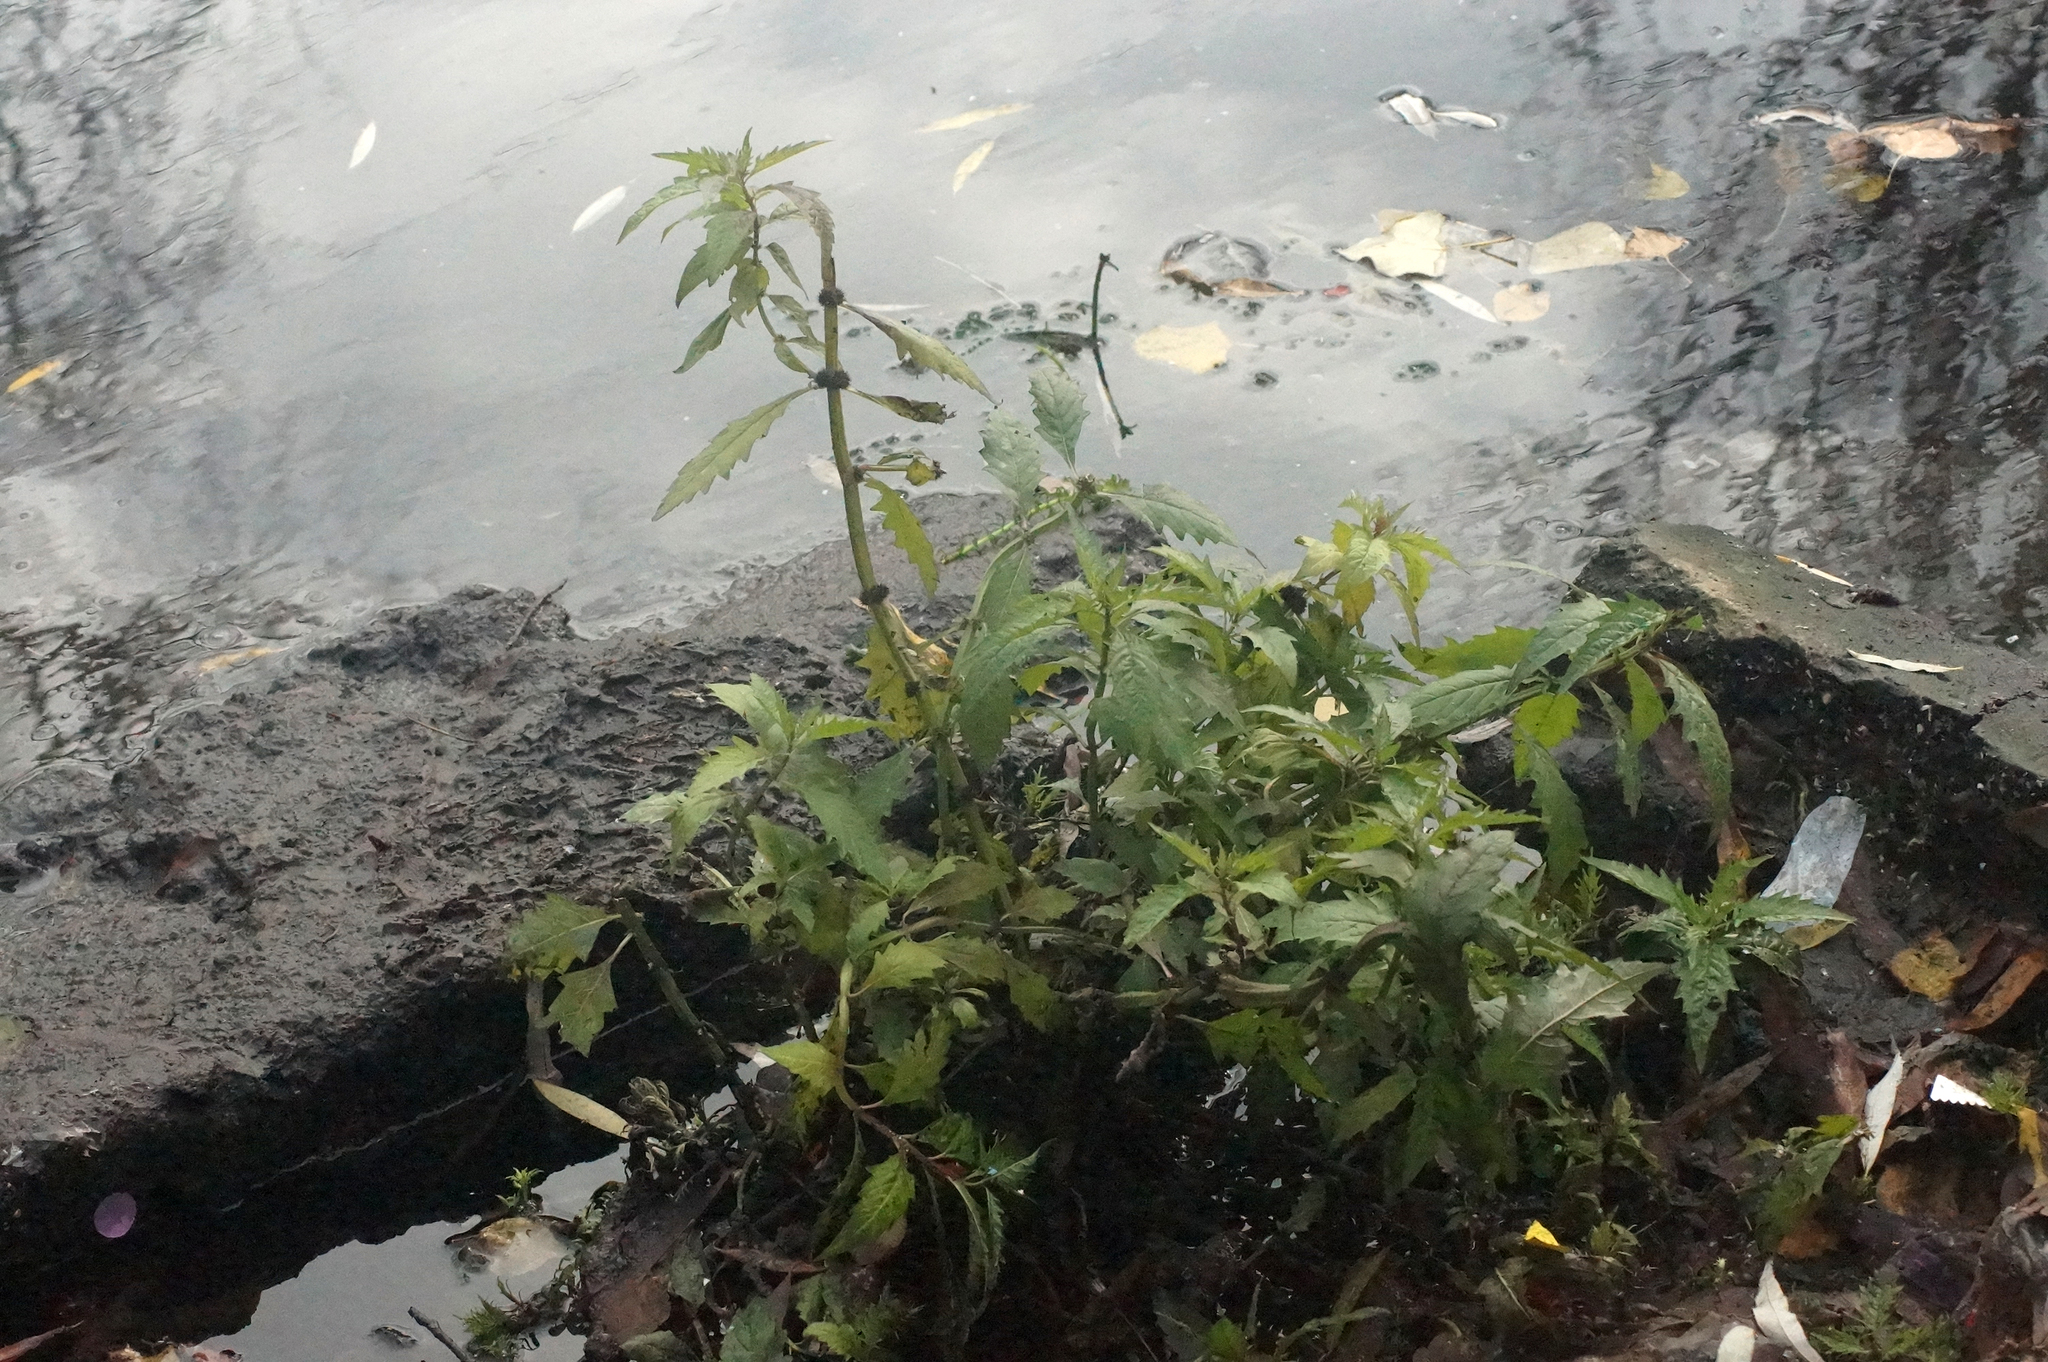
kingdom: Plantae
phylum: Tracheophyta
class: Magnoliopsida
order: Lamiales
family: Lamiaceae
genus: Lycopus
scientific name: Lycopus europaeus
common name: European bugleweed
